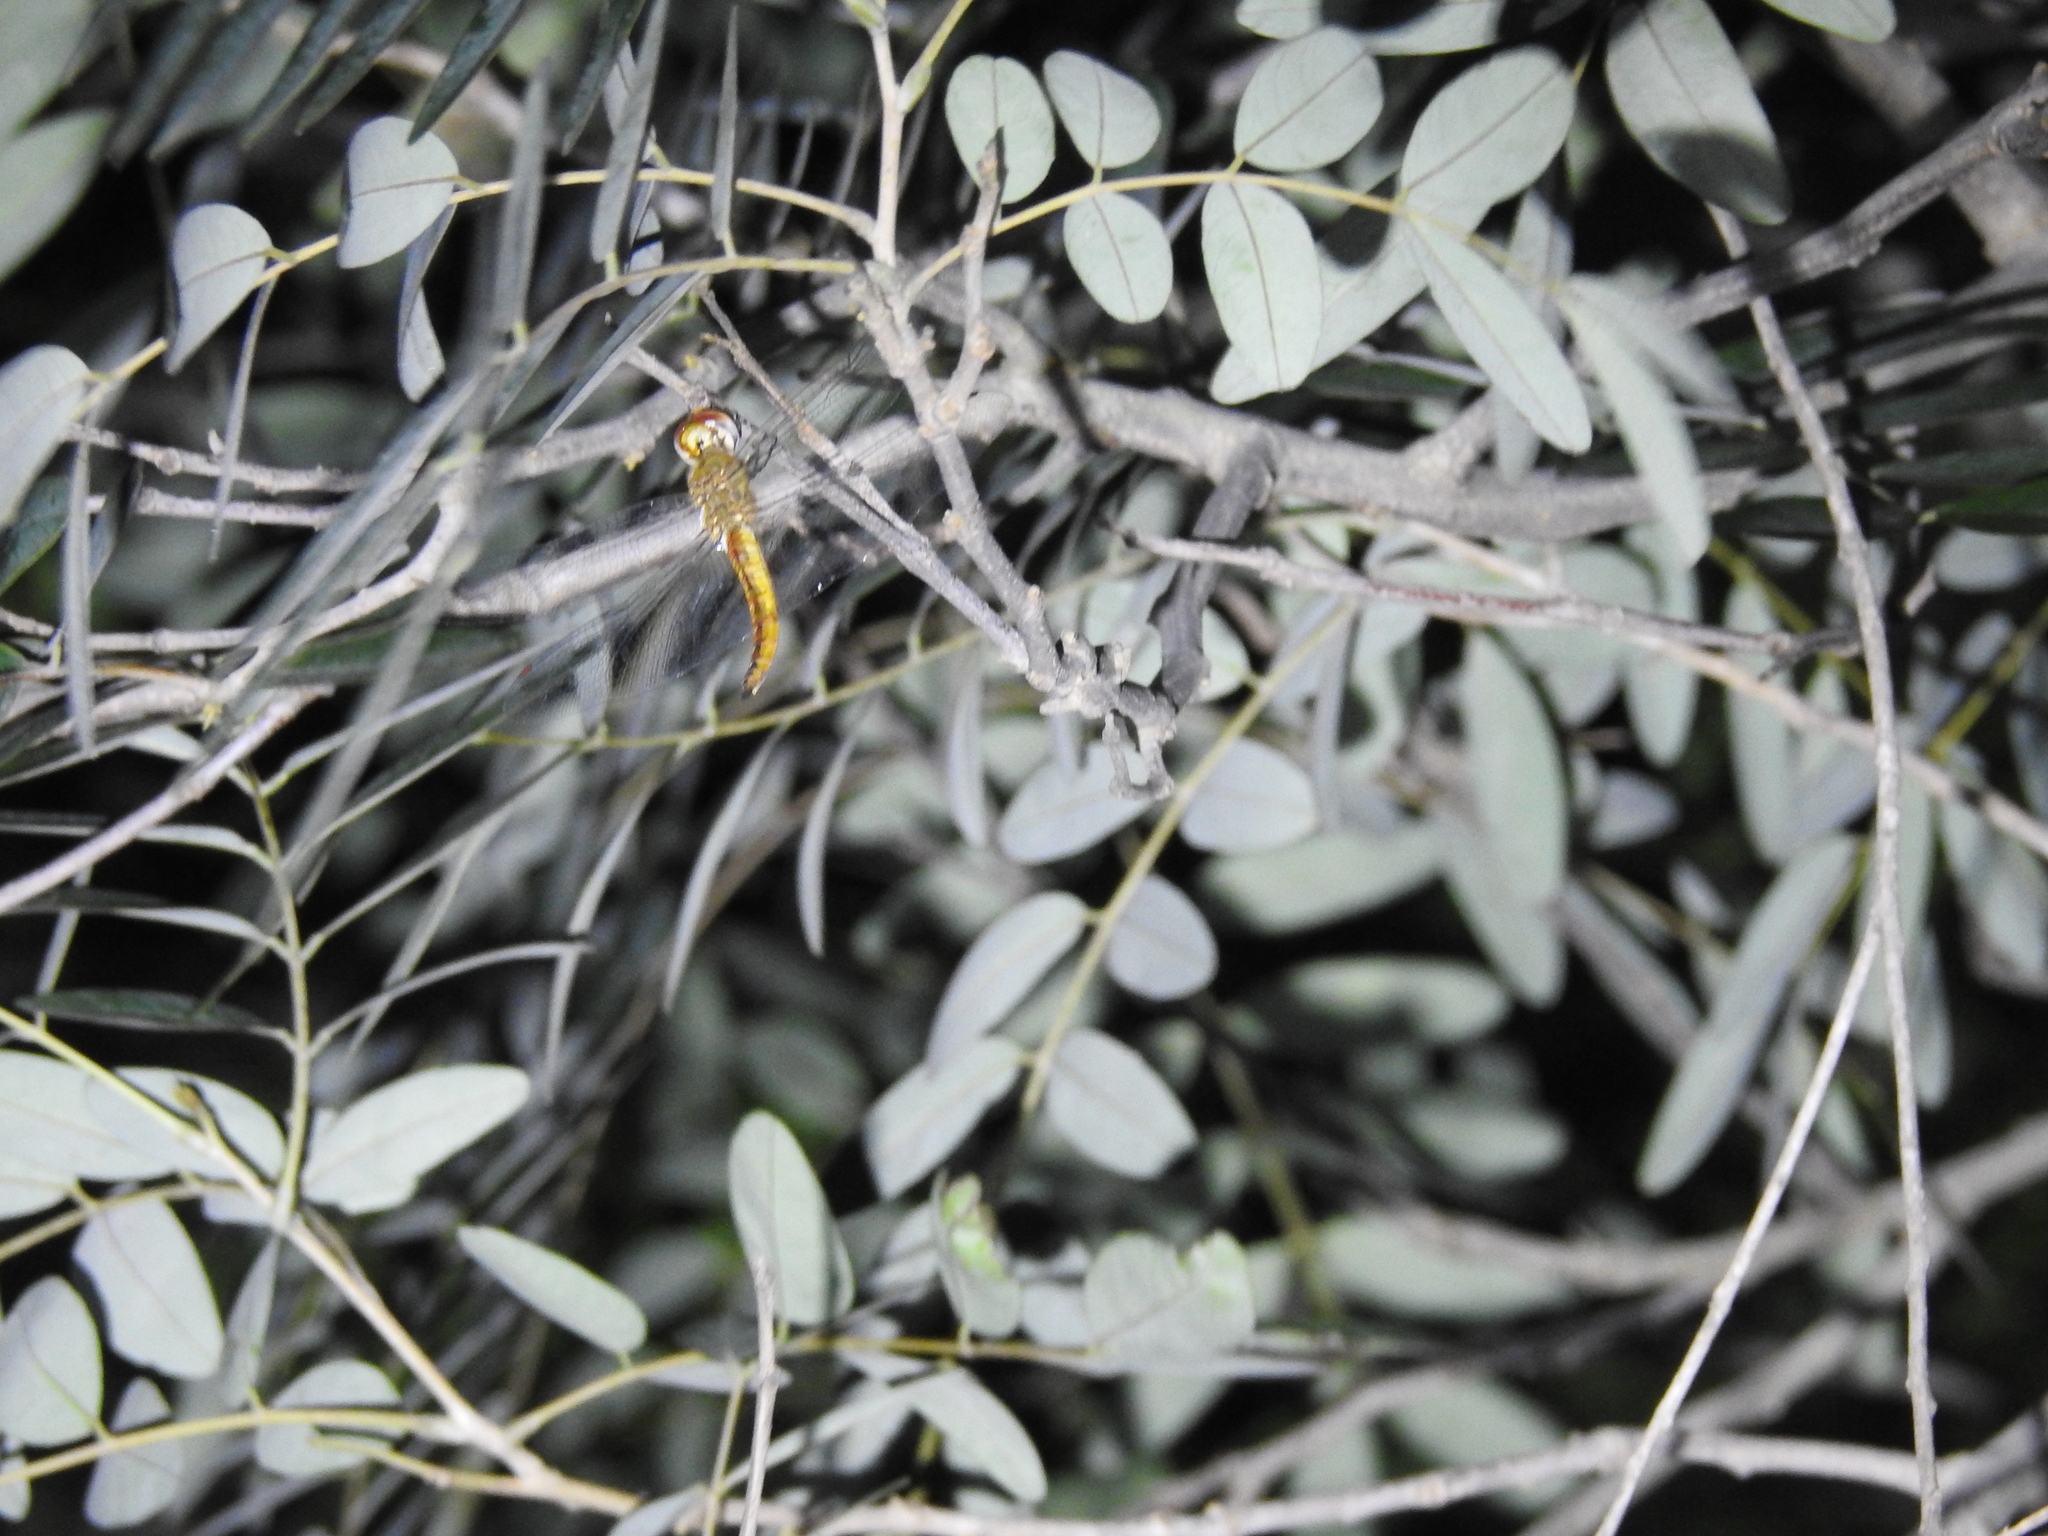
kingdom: Animalia
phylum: Arthropoda
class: Insecta
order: Odonata
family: Libellulidae
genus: Pantala
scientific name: Pantala flavescens
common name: Wandering glider
